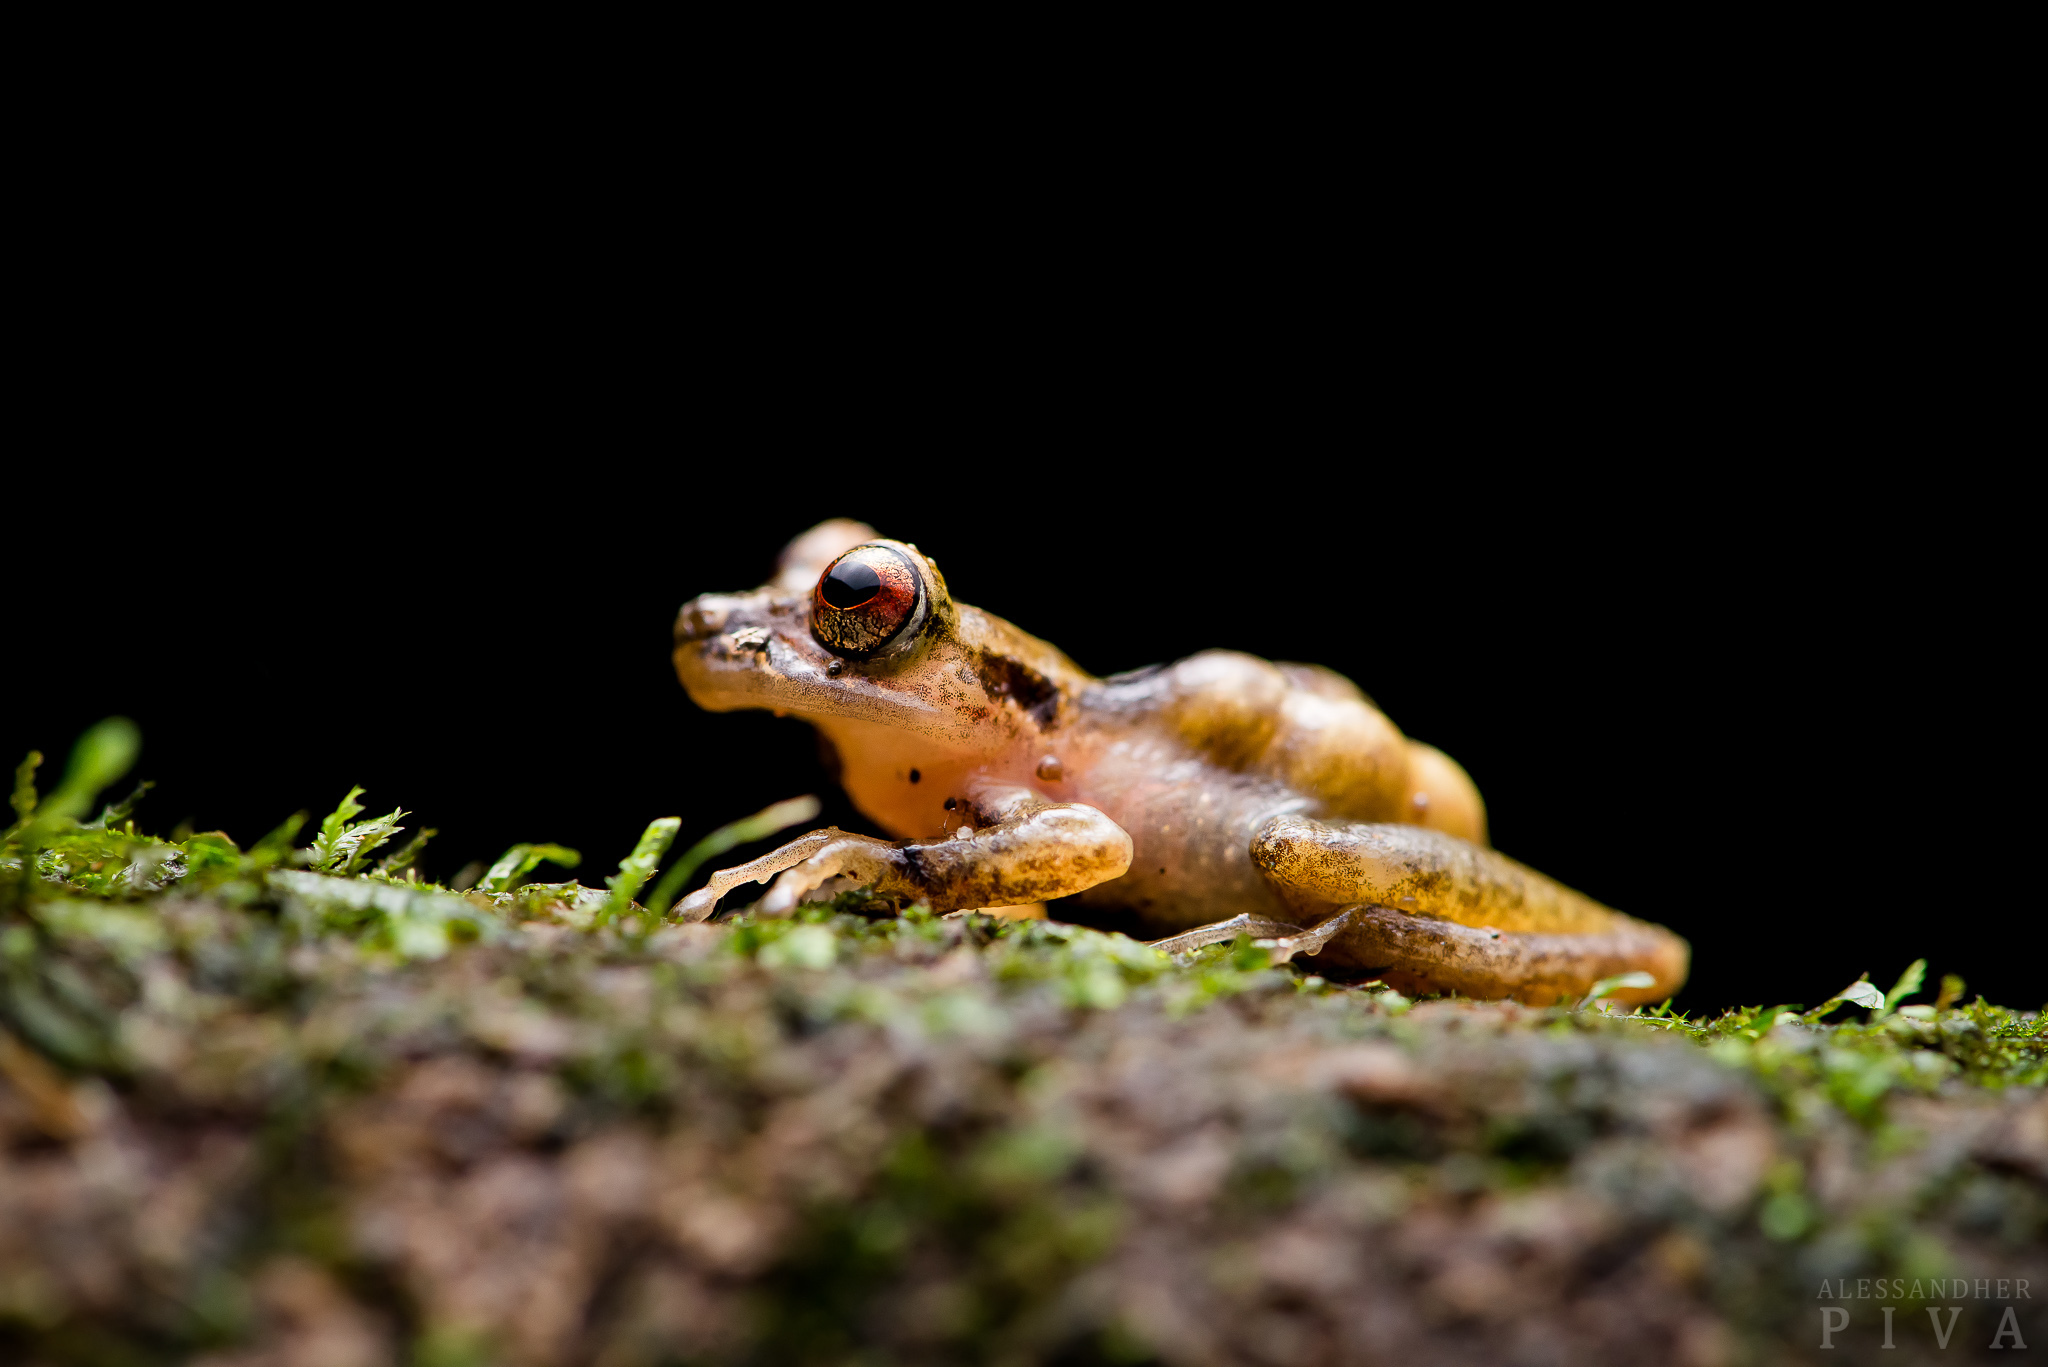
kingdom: Animalia
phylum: Chordata
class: Amphibia
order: Anura
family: Hemiphractidae
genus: Fritziana
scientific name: Fritziana mitus
